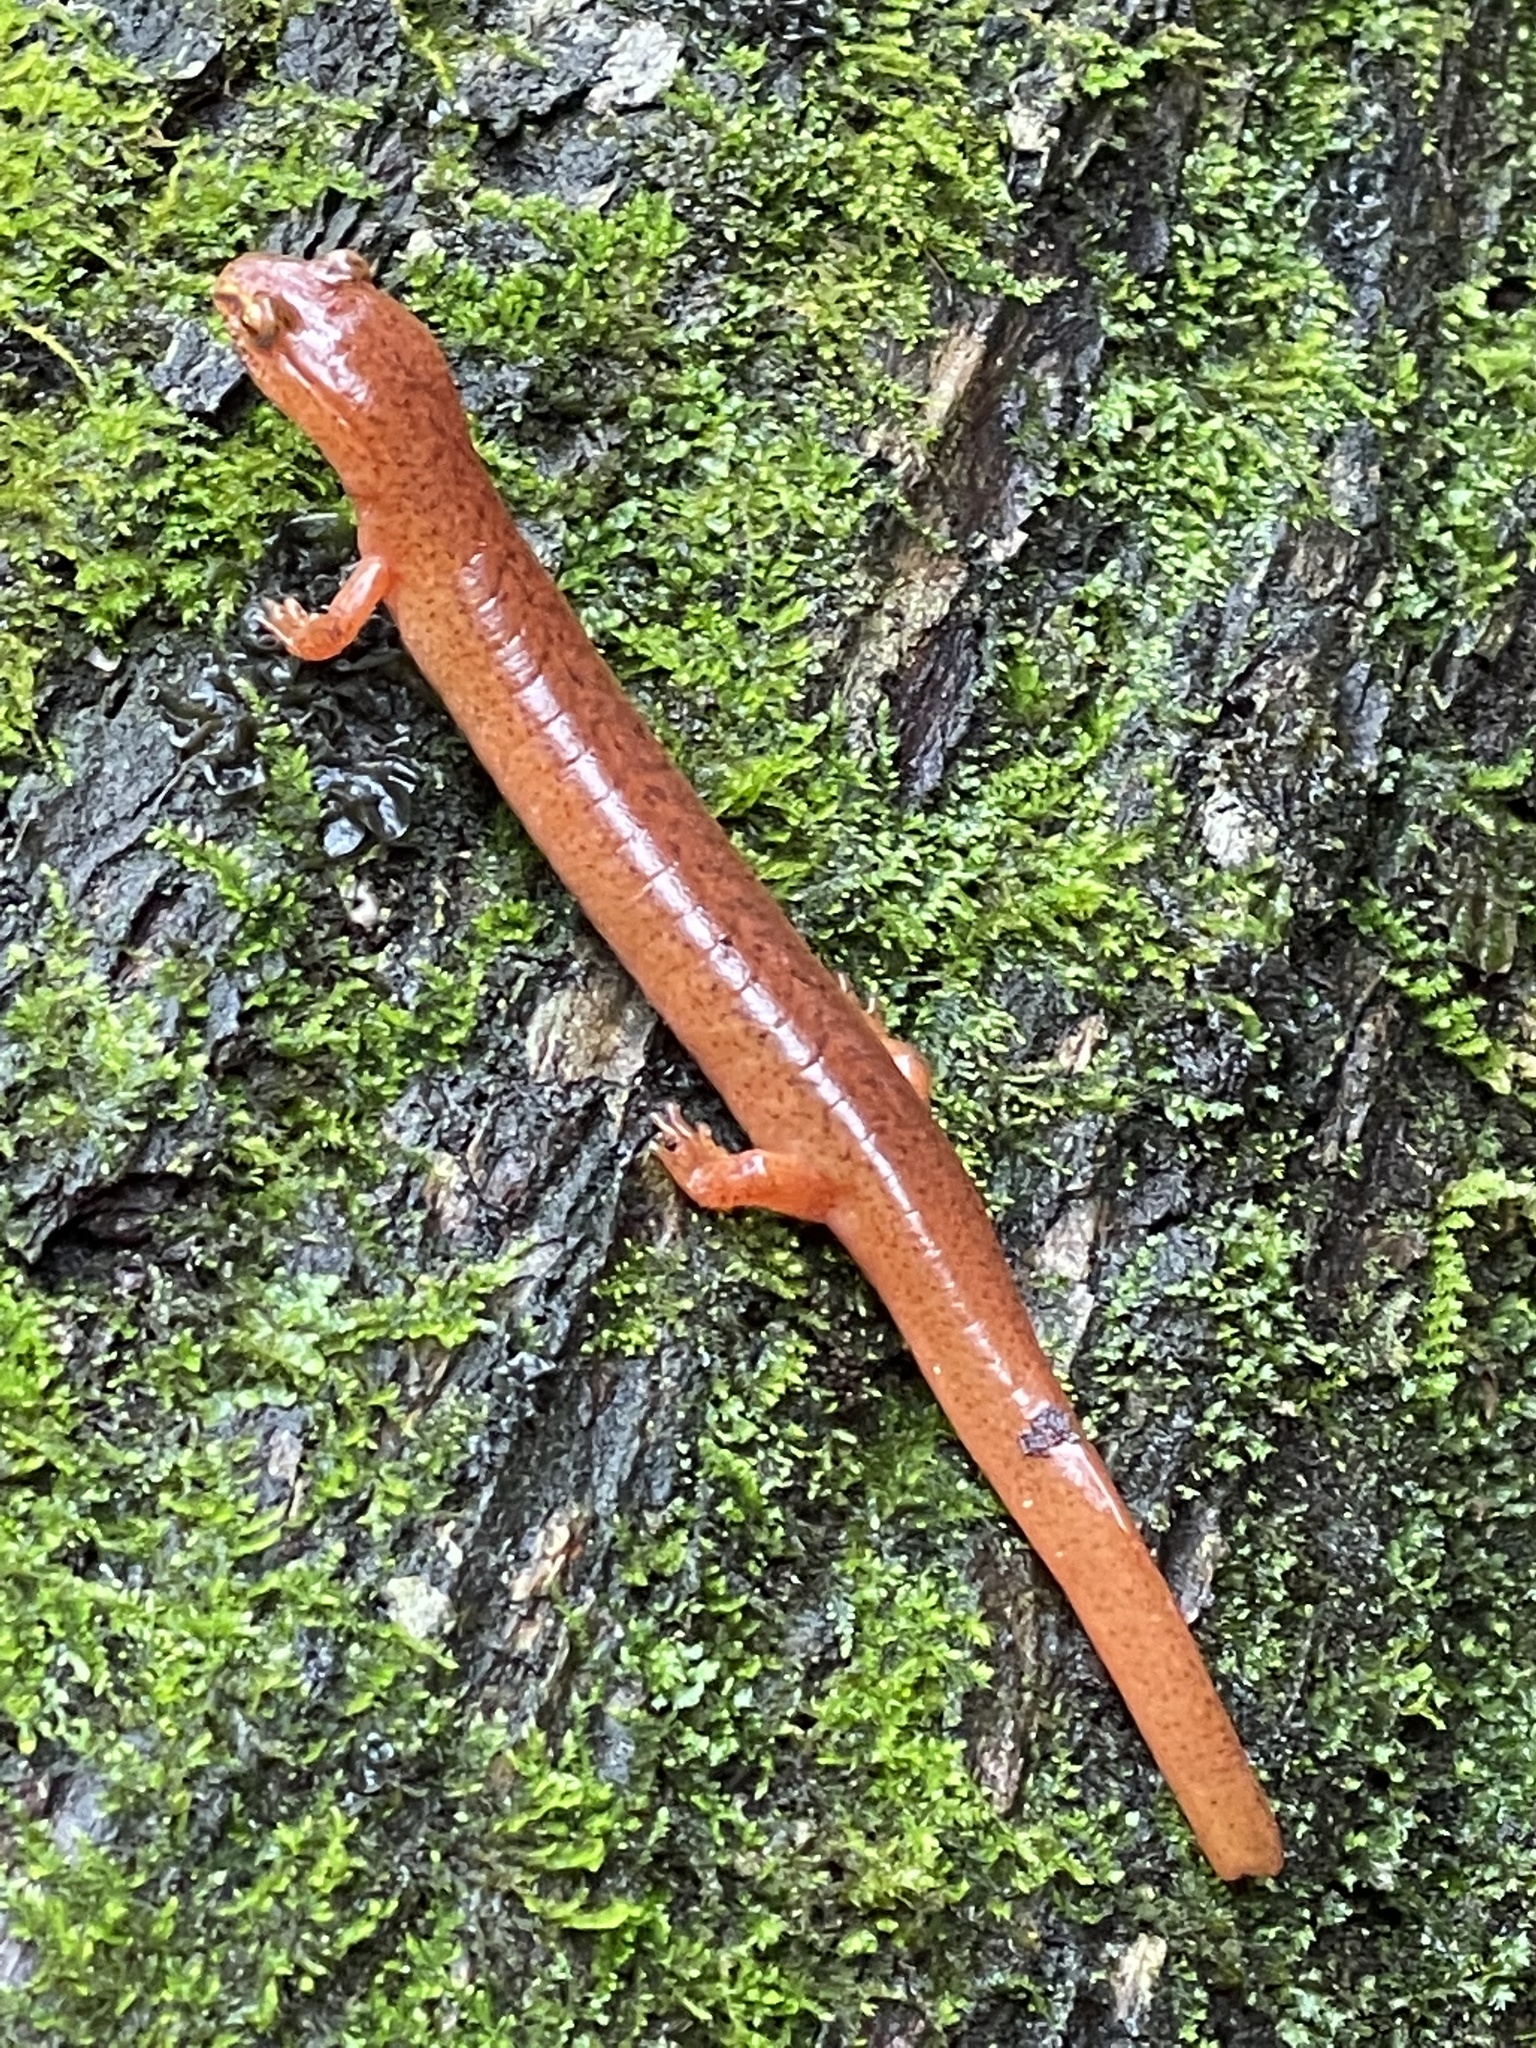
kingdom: Animalia
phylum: Chordata
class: Amphibia
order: Caudata
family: Plethodontidae
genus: Gyrinophilus
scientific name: Gyrinophilus porphyriticus
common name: Spring salamander
